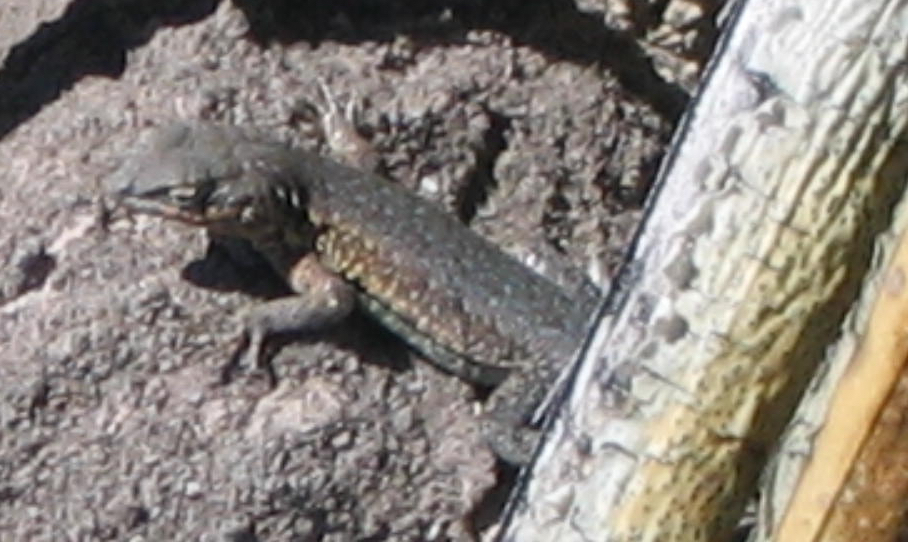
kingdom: Animalia
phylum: Chordata
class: Squamata
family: Phrynosomatidae
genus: Uta
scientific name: Uta stansburiana
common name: Side-blotched lizard
